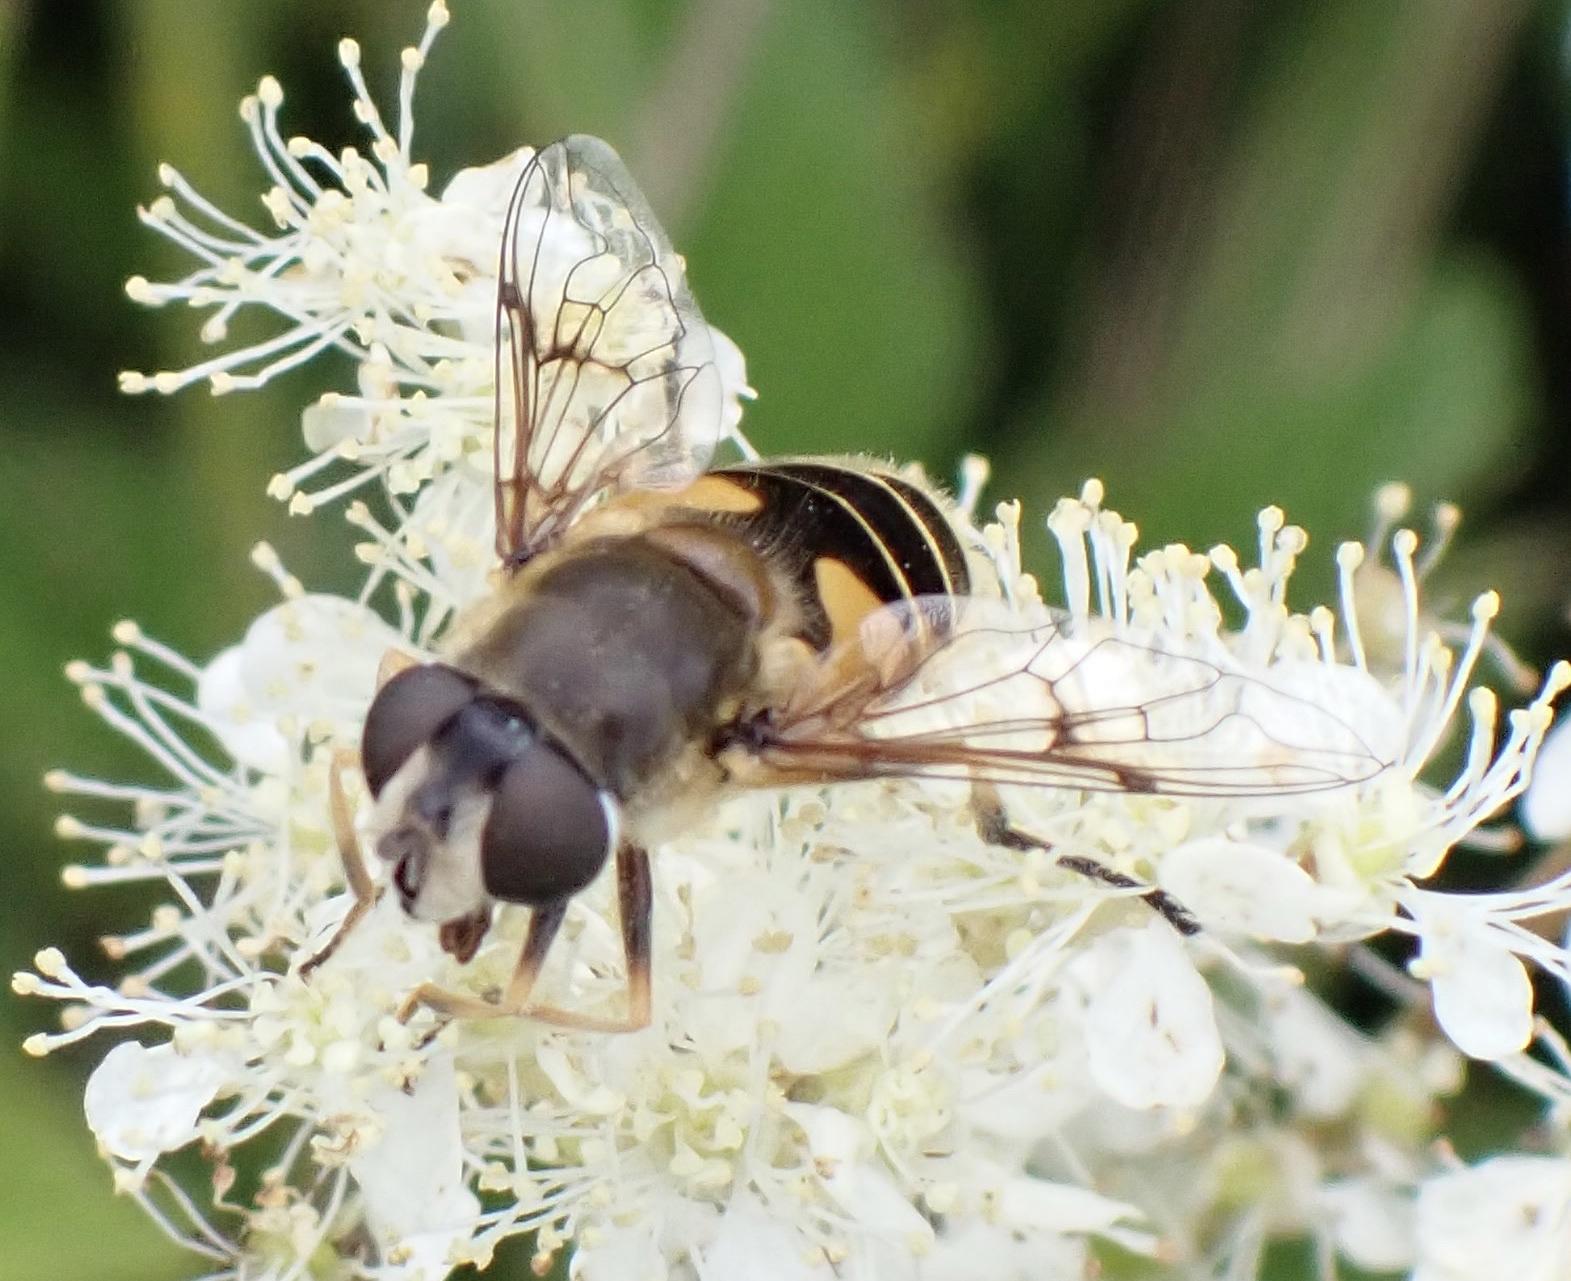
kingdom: Animalia
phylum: Arthropoda
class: Insecta
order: Diptera
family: Syrphidae
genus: Cheilosia
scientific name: Cheilosia morio
